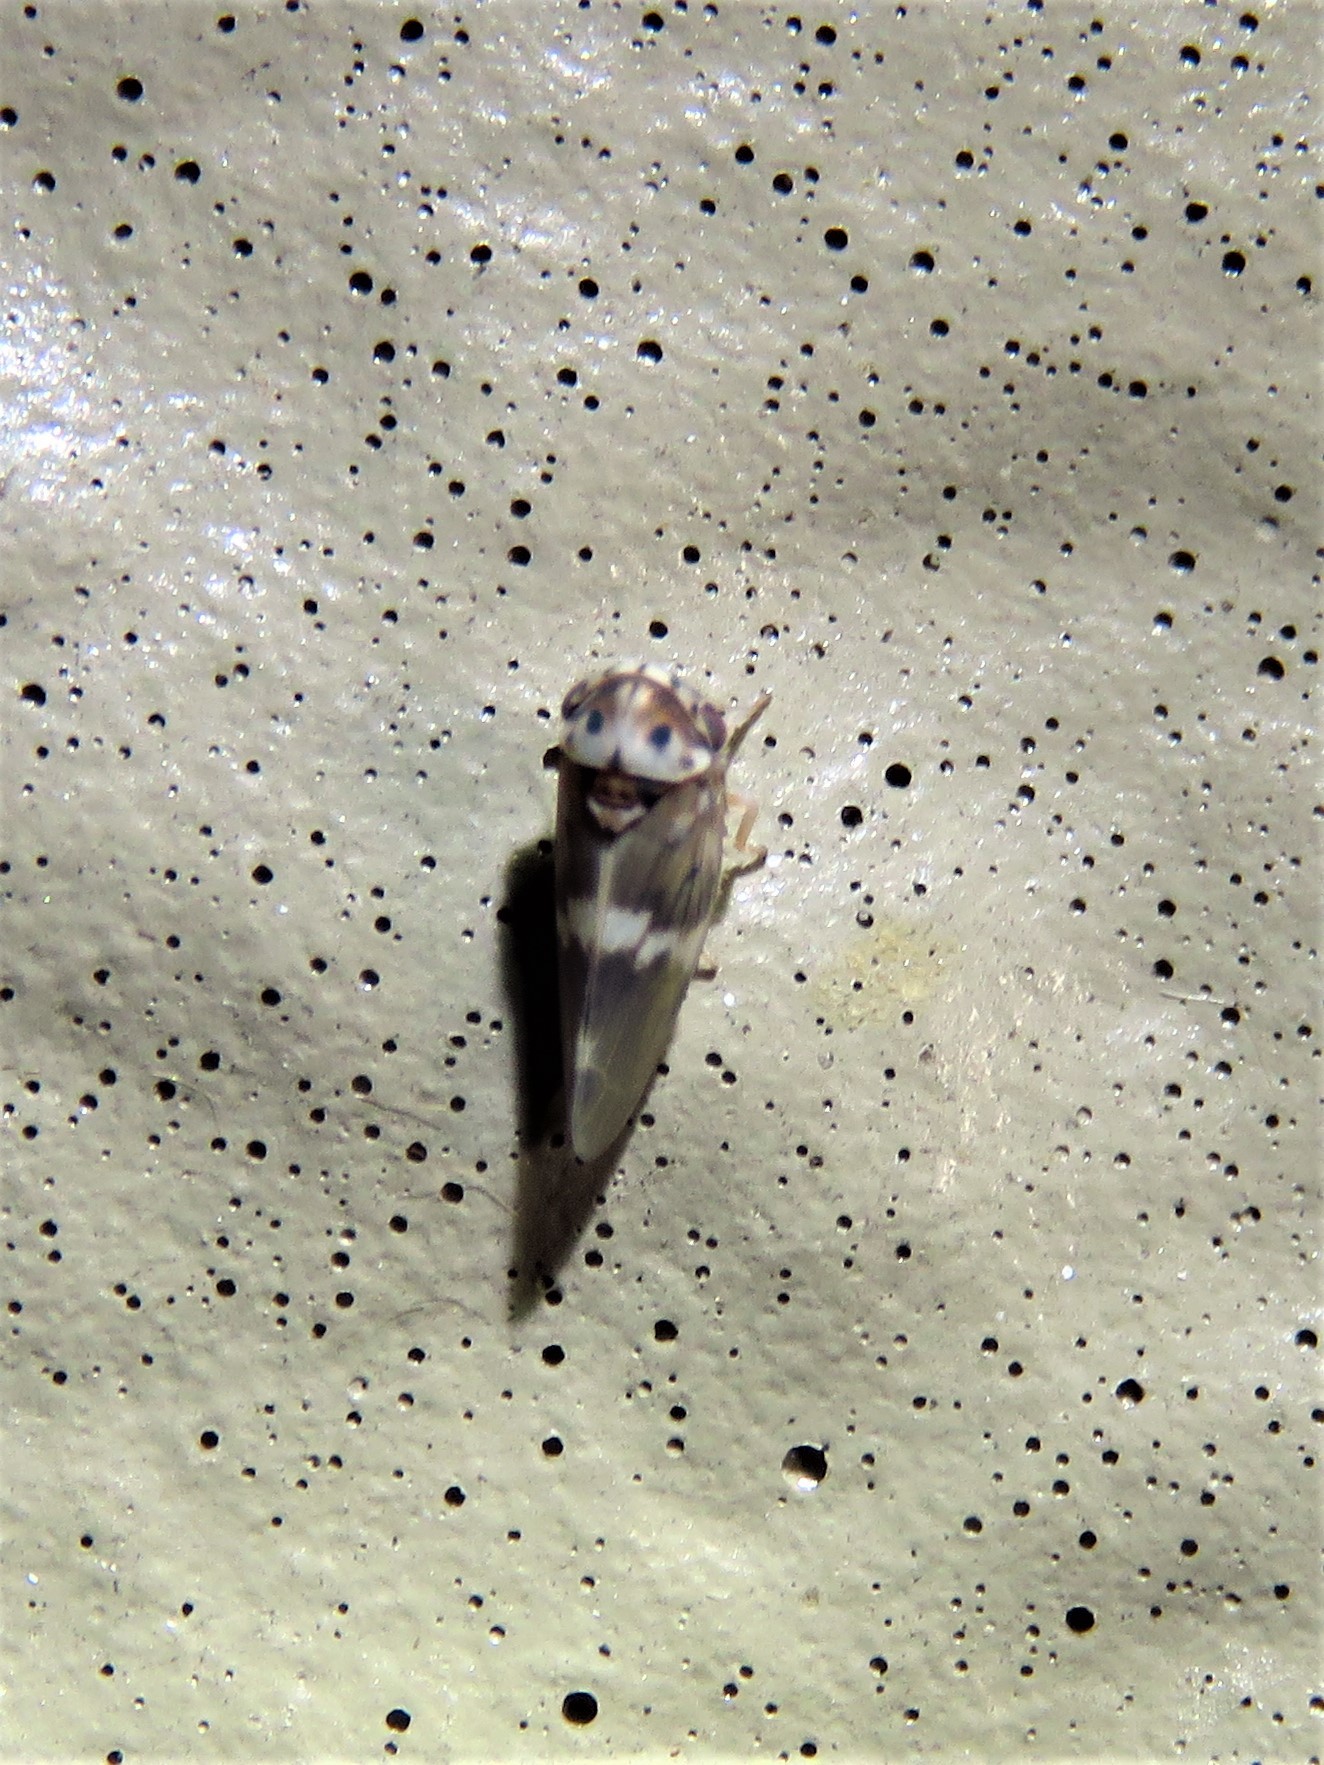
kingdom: Animalia
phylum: Arthropoda
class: Insecta
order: Hemiptera
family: Cicadellidae
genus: Agalliopsis
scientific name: Agalliopsis cervina
